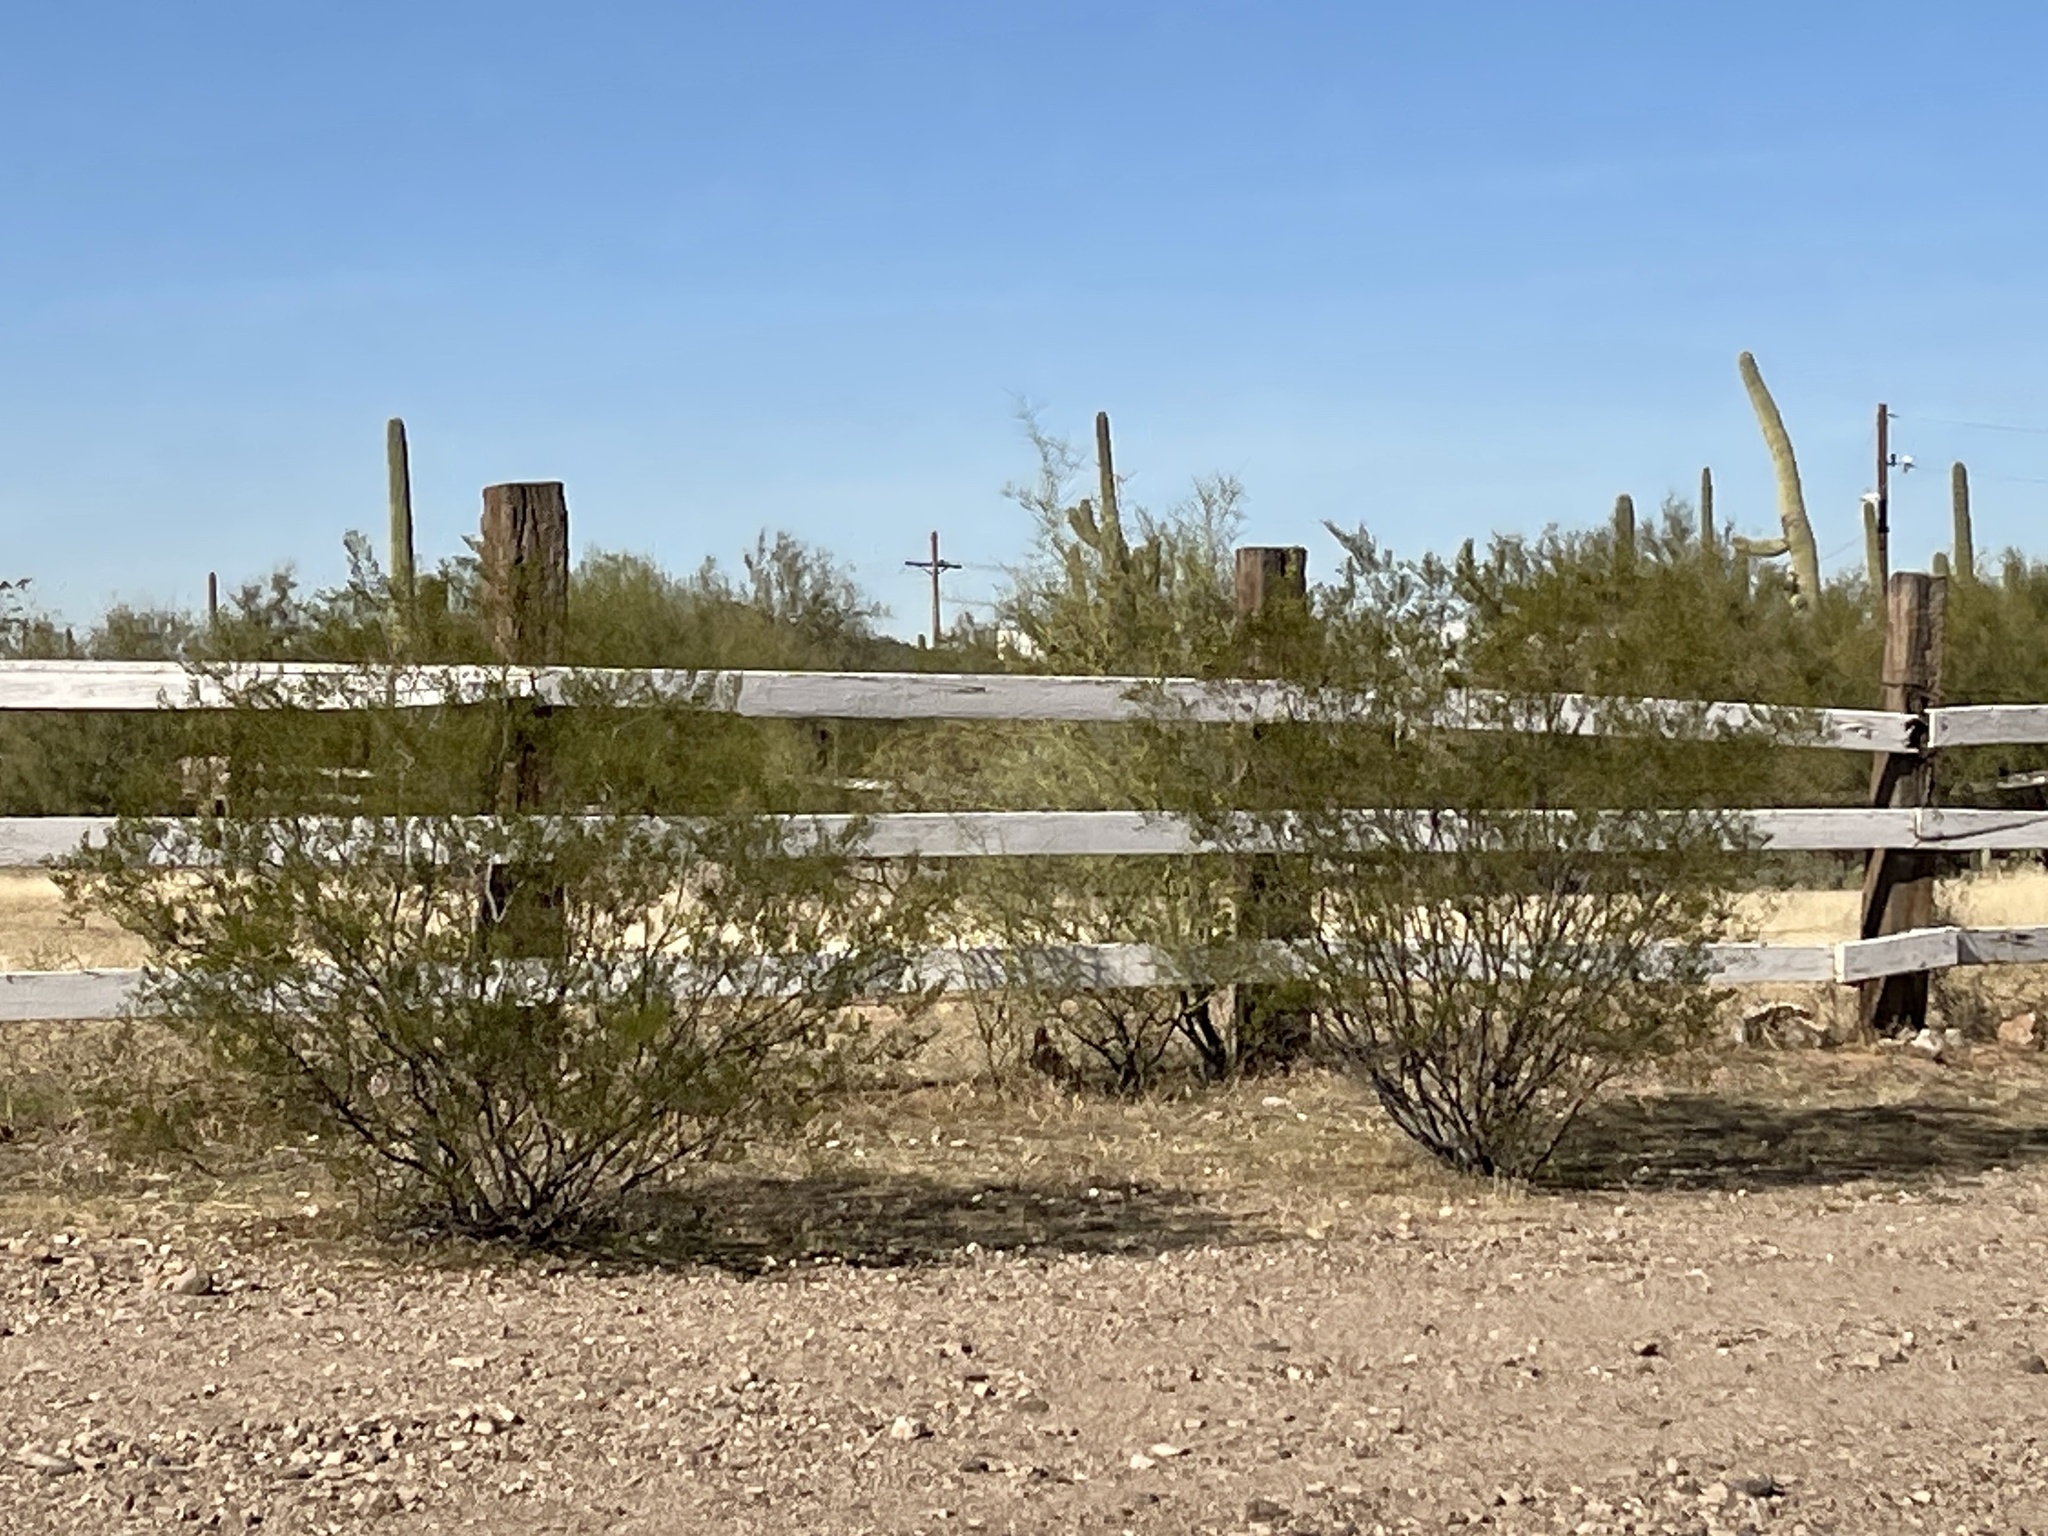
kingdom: Plantae
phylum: Tracheophyta
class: Magnoliopsida
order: Zygophyllales
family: Zygophyllaceae
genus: Larrea
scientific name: Larrea tridentata
